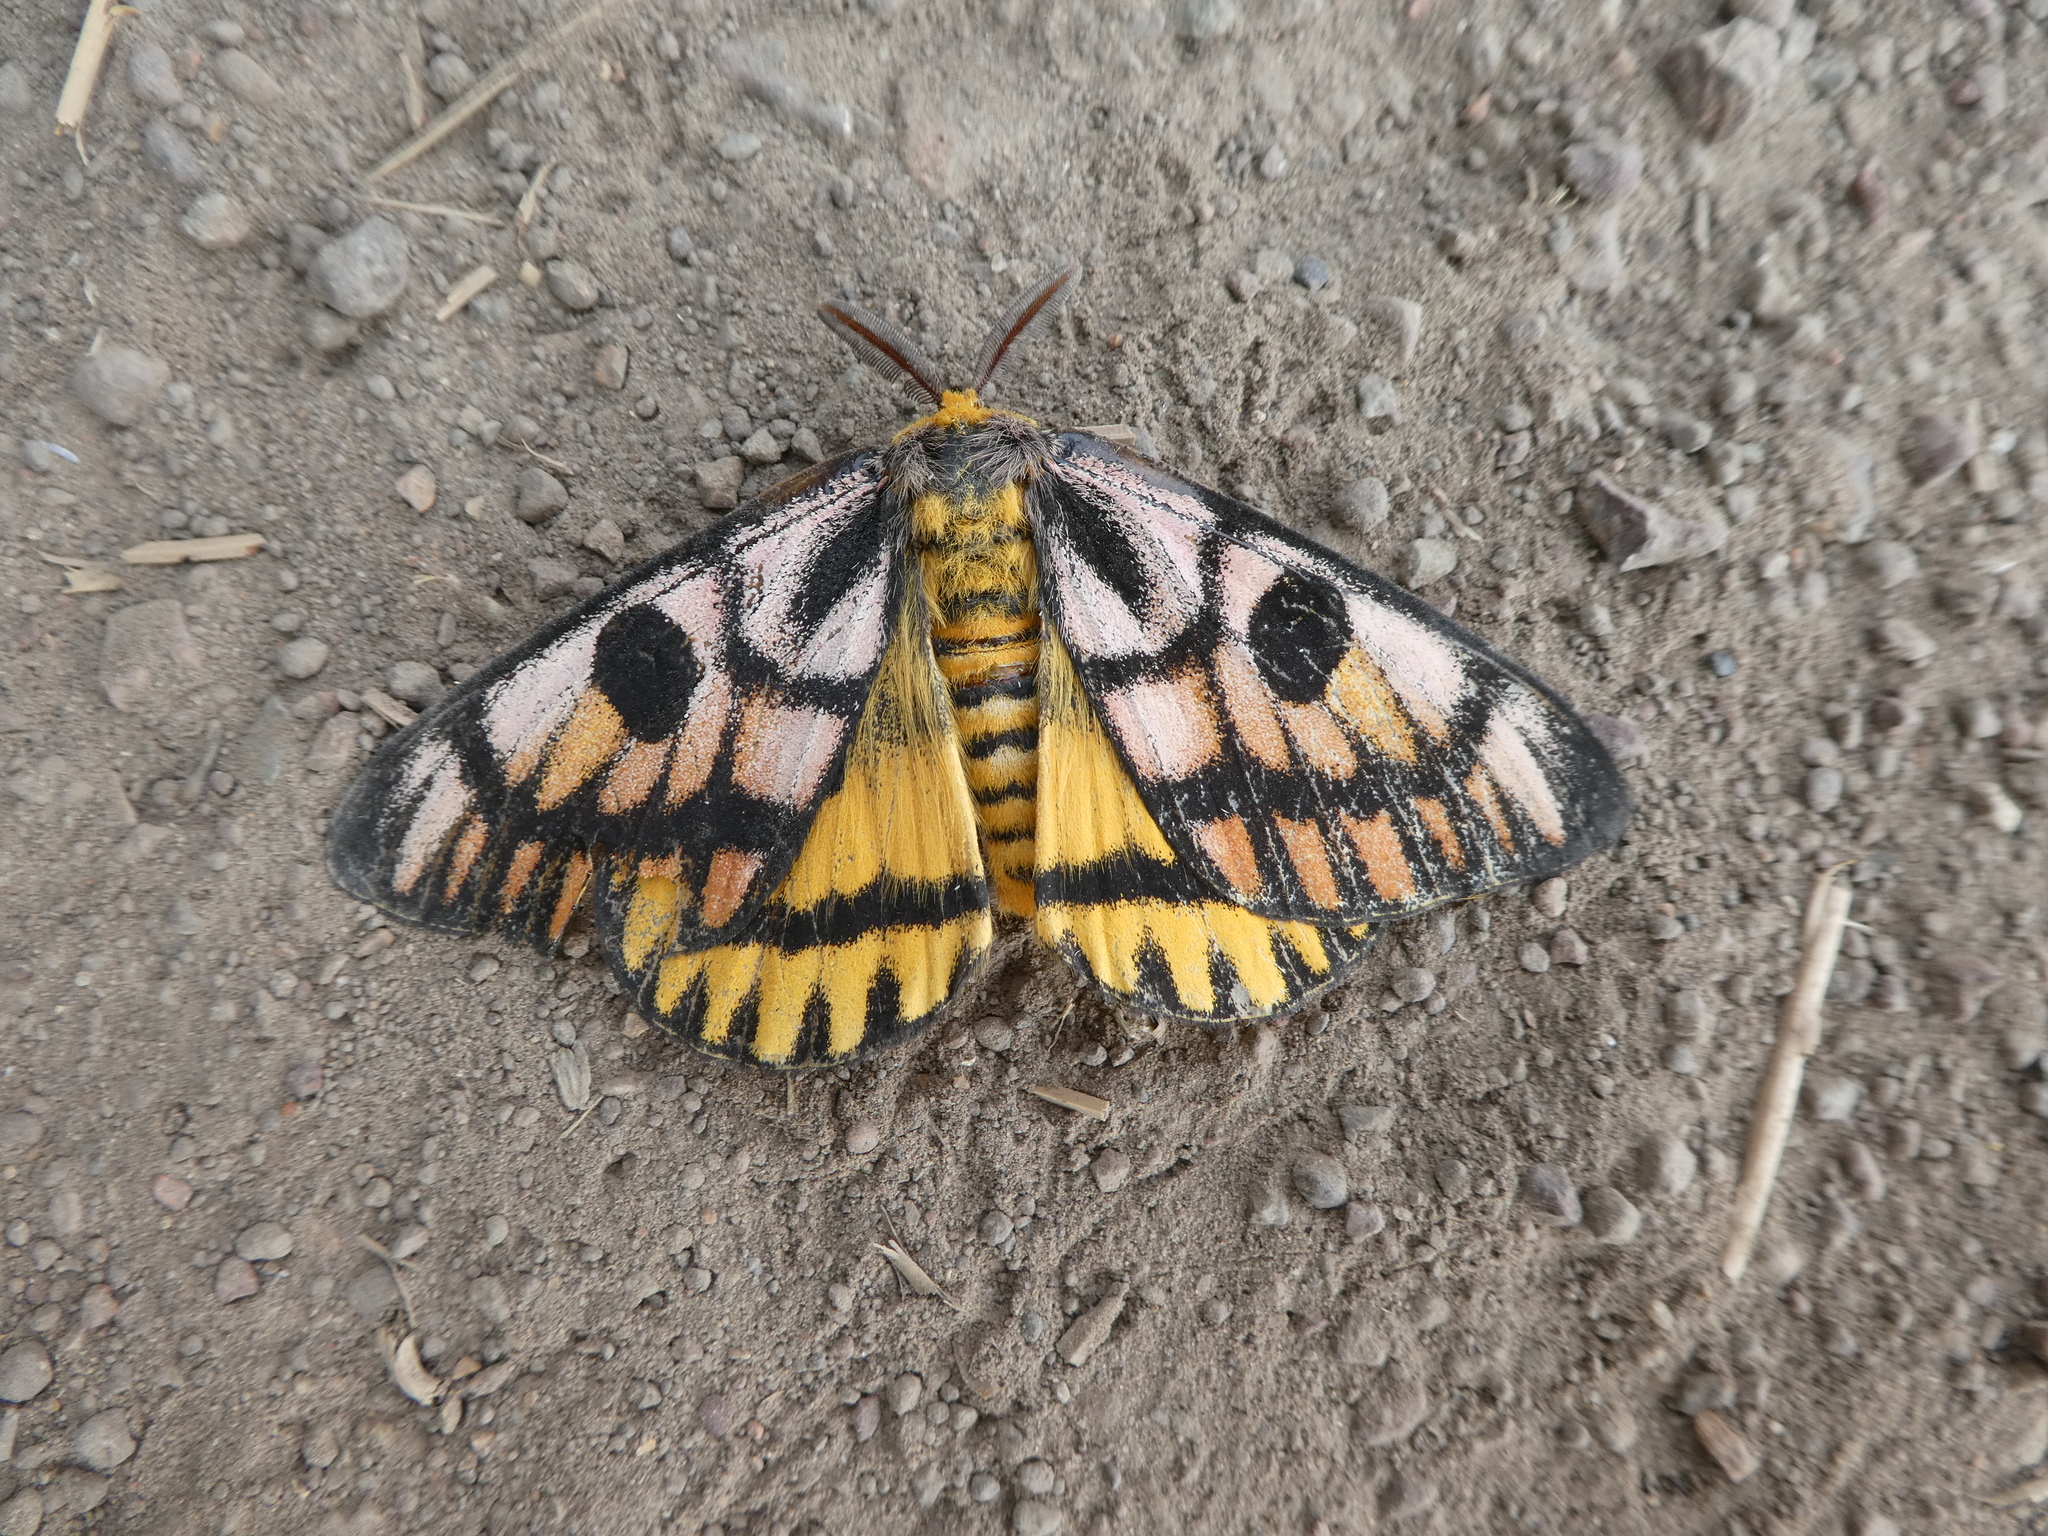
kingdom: Animalia
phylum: Arthropoda
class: Insecta
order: Lepidoptera
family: Saturniidae
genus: Hemileuca
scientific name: Hemileuca eglanterina
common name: Western sheepmoth
